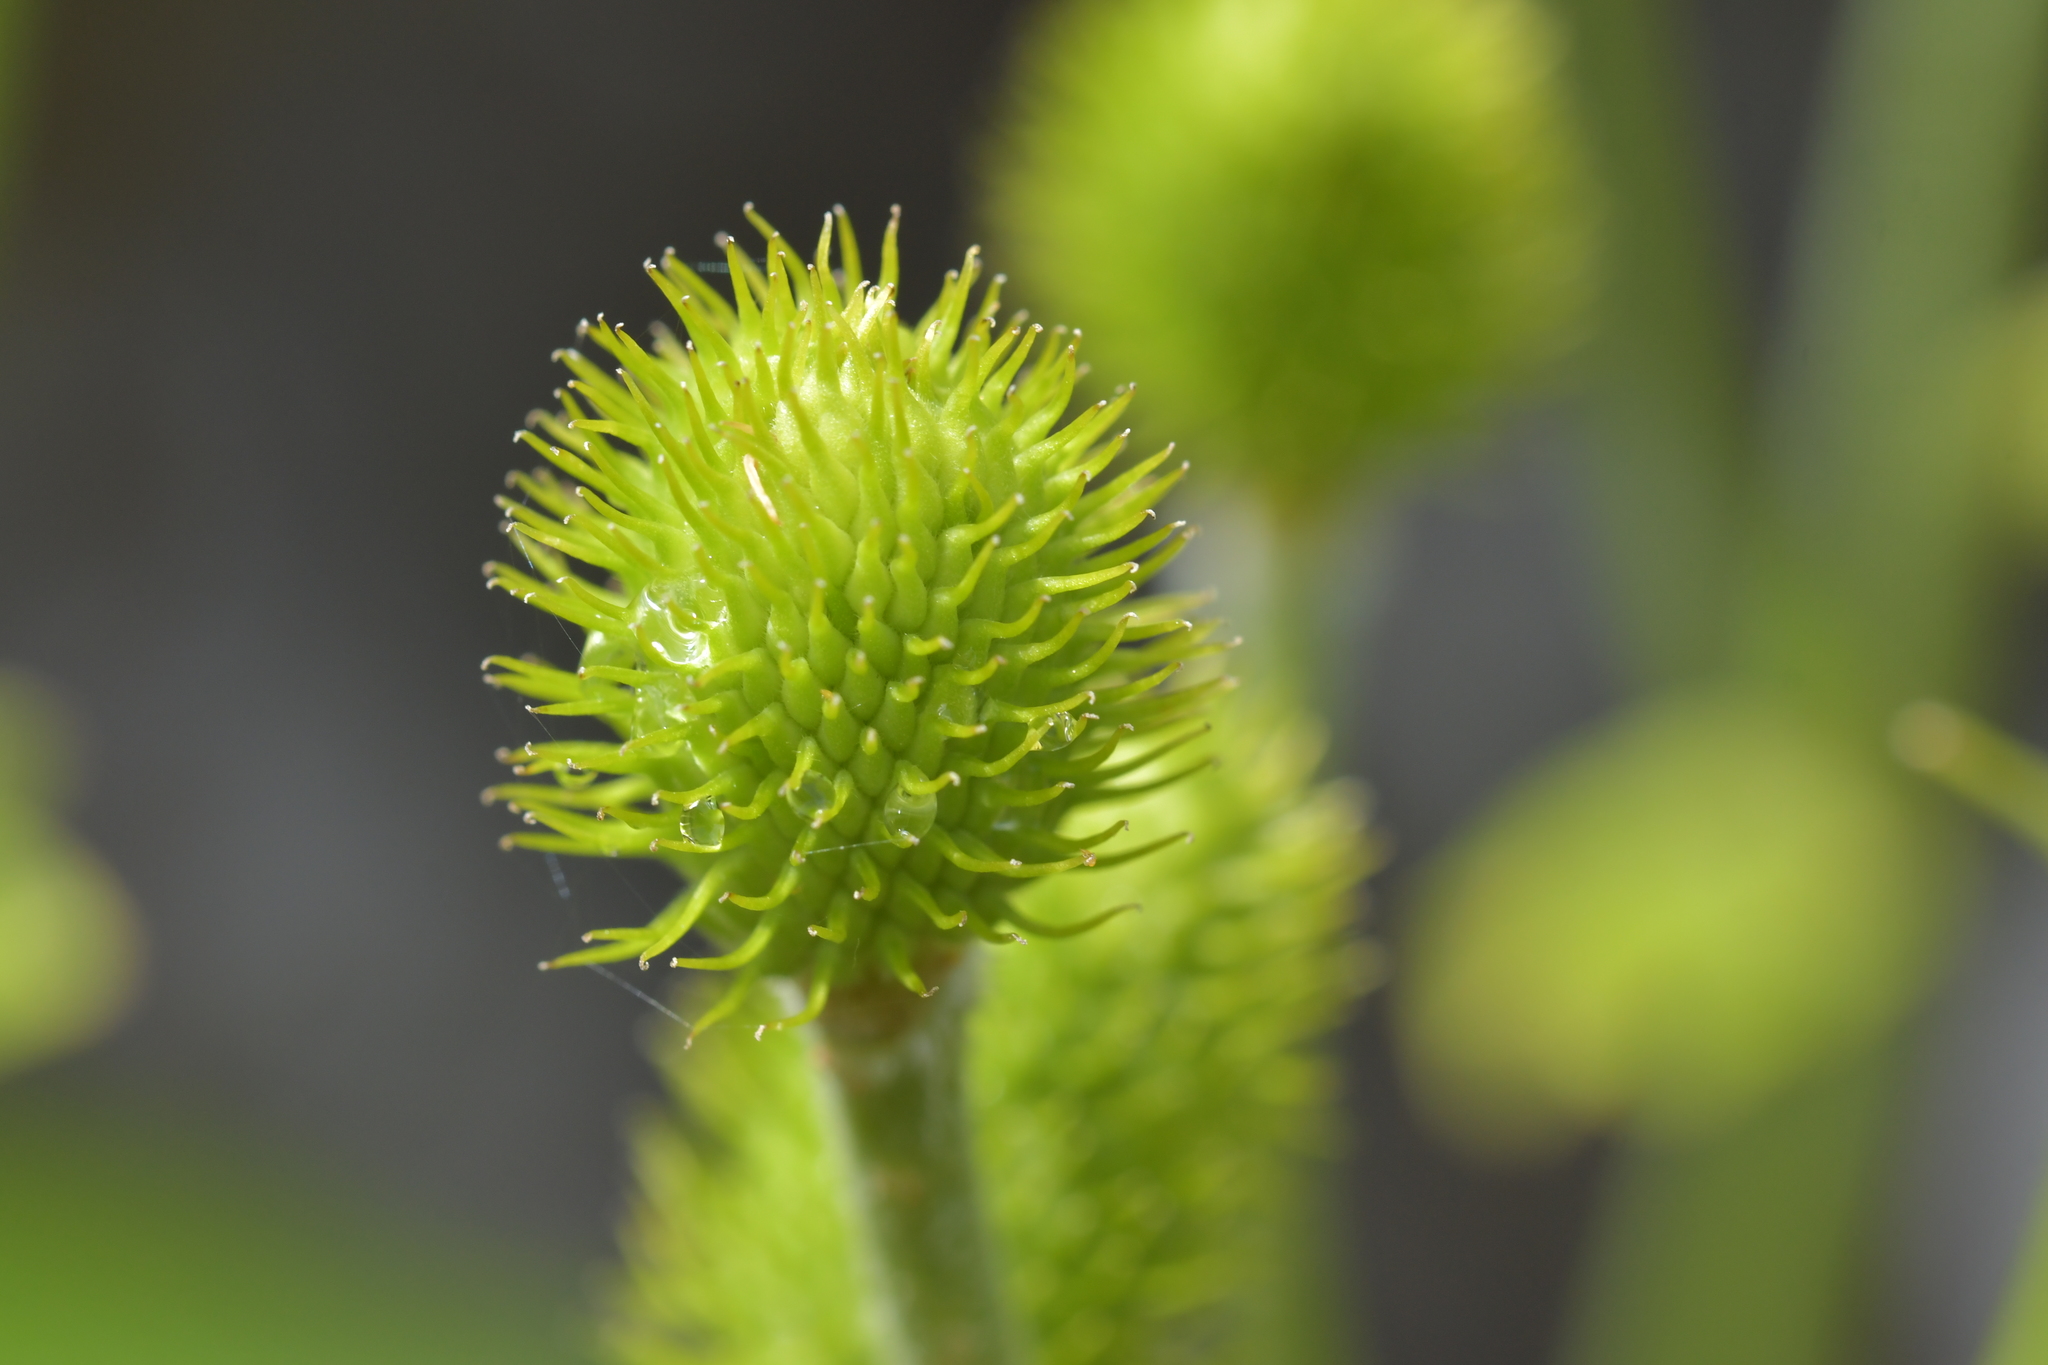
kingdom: Plantae
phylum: Tracheophyta
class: Magnoliopsida
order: Ranunculales
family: Ranunculaceae
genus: Ranunculus
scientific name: Ranunculus lyallii
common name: Mountain-lily
